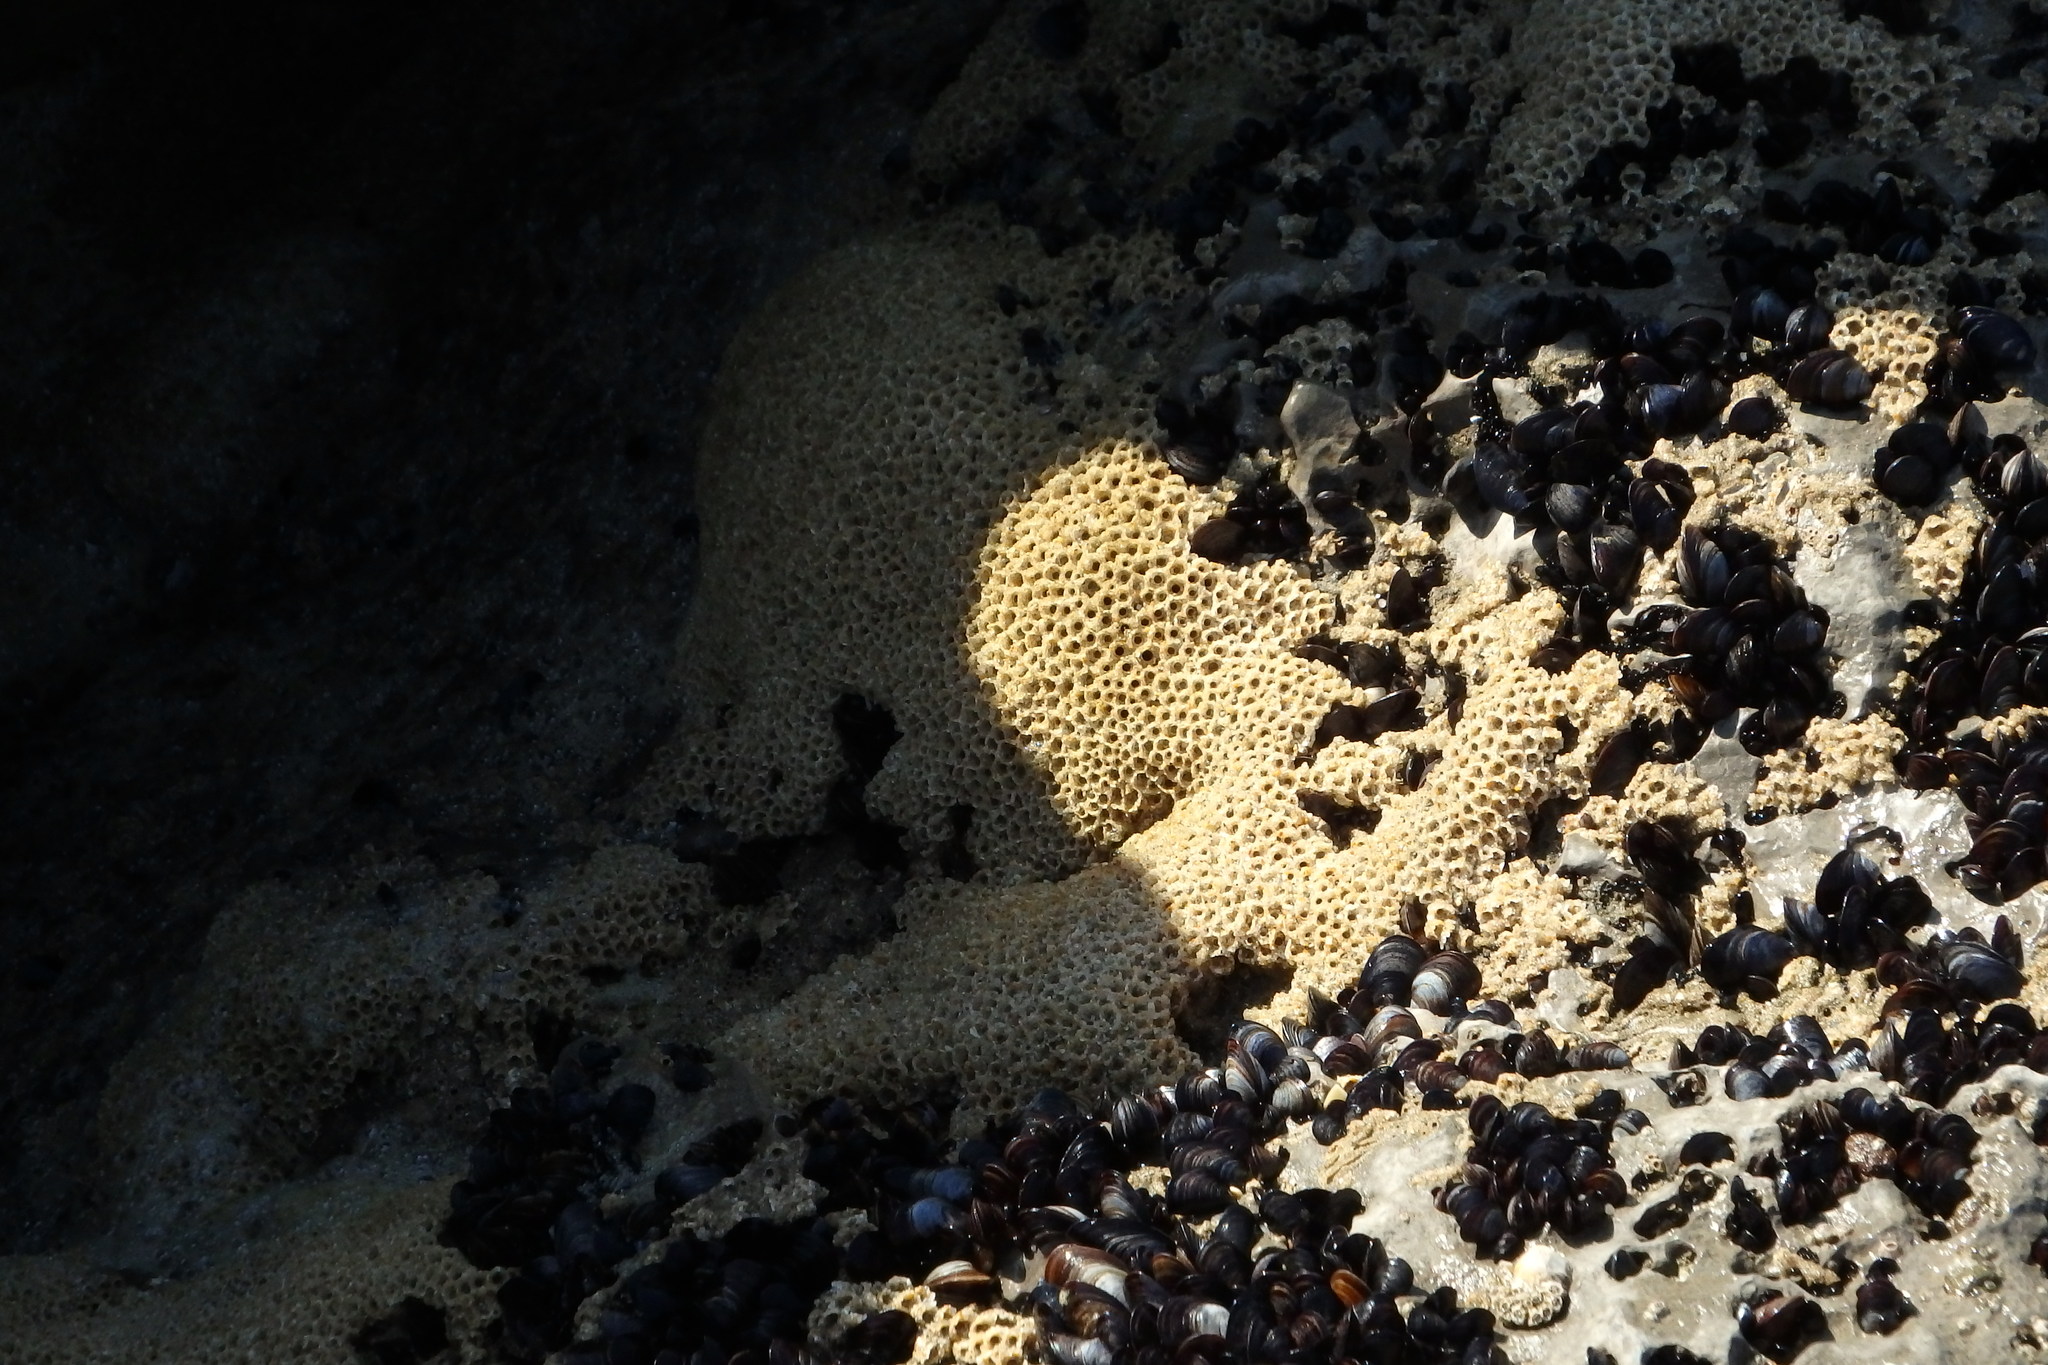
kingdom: Animalia
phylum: Annelida
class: Polychaeta
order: Sabellida
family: Sabellariidae
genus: Sabellaria
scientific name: Sabellaria alveolata
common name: Honeycomb worm
